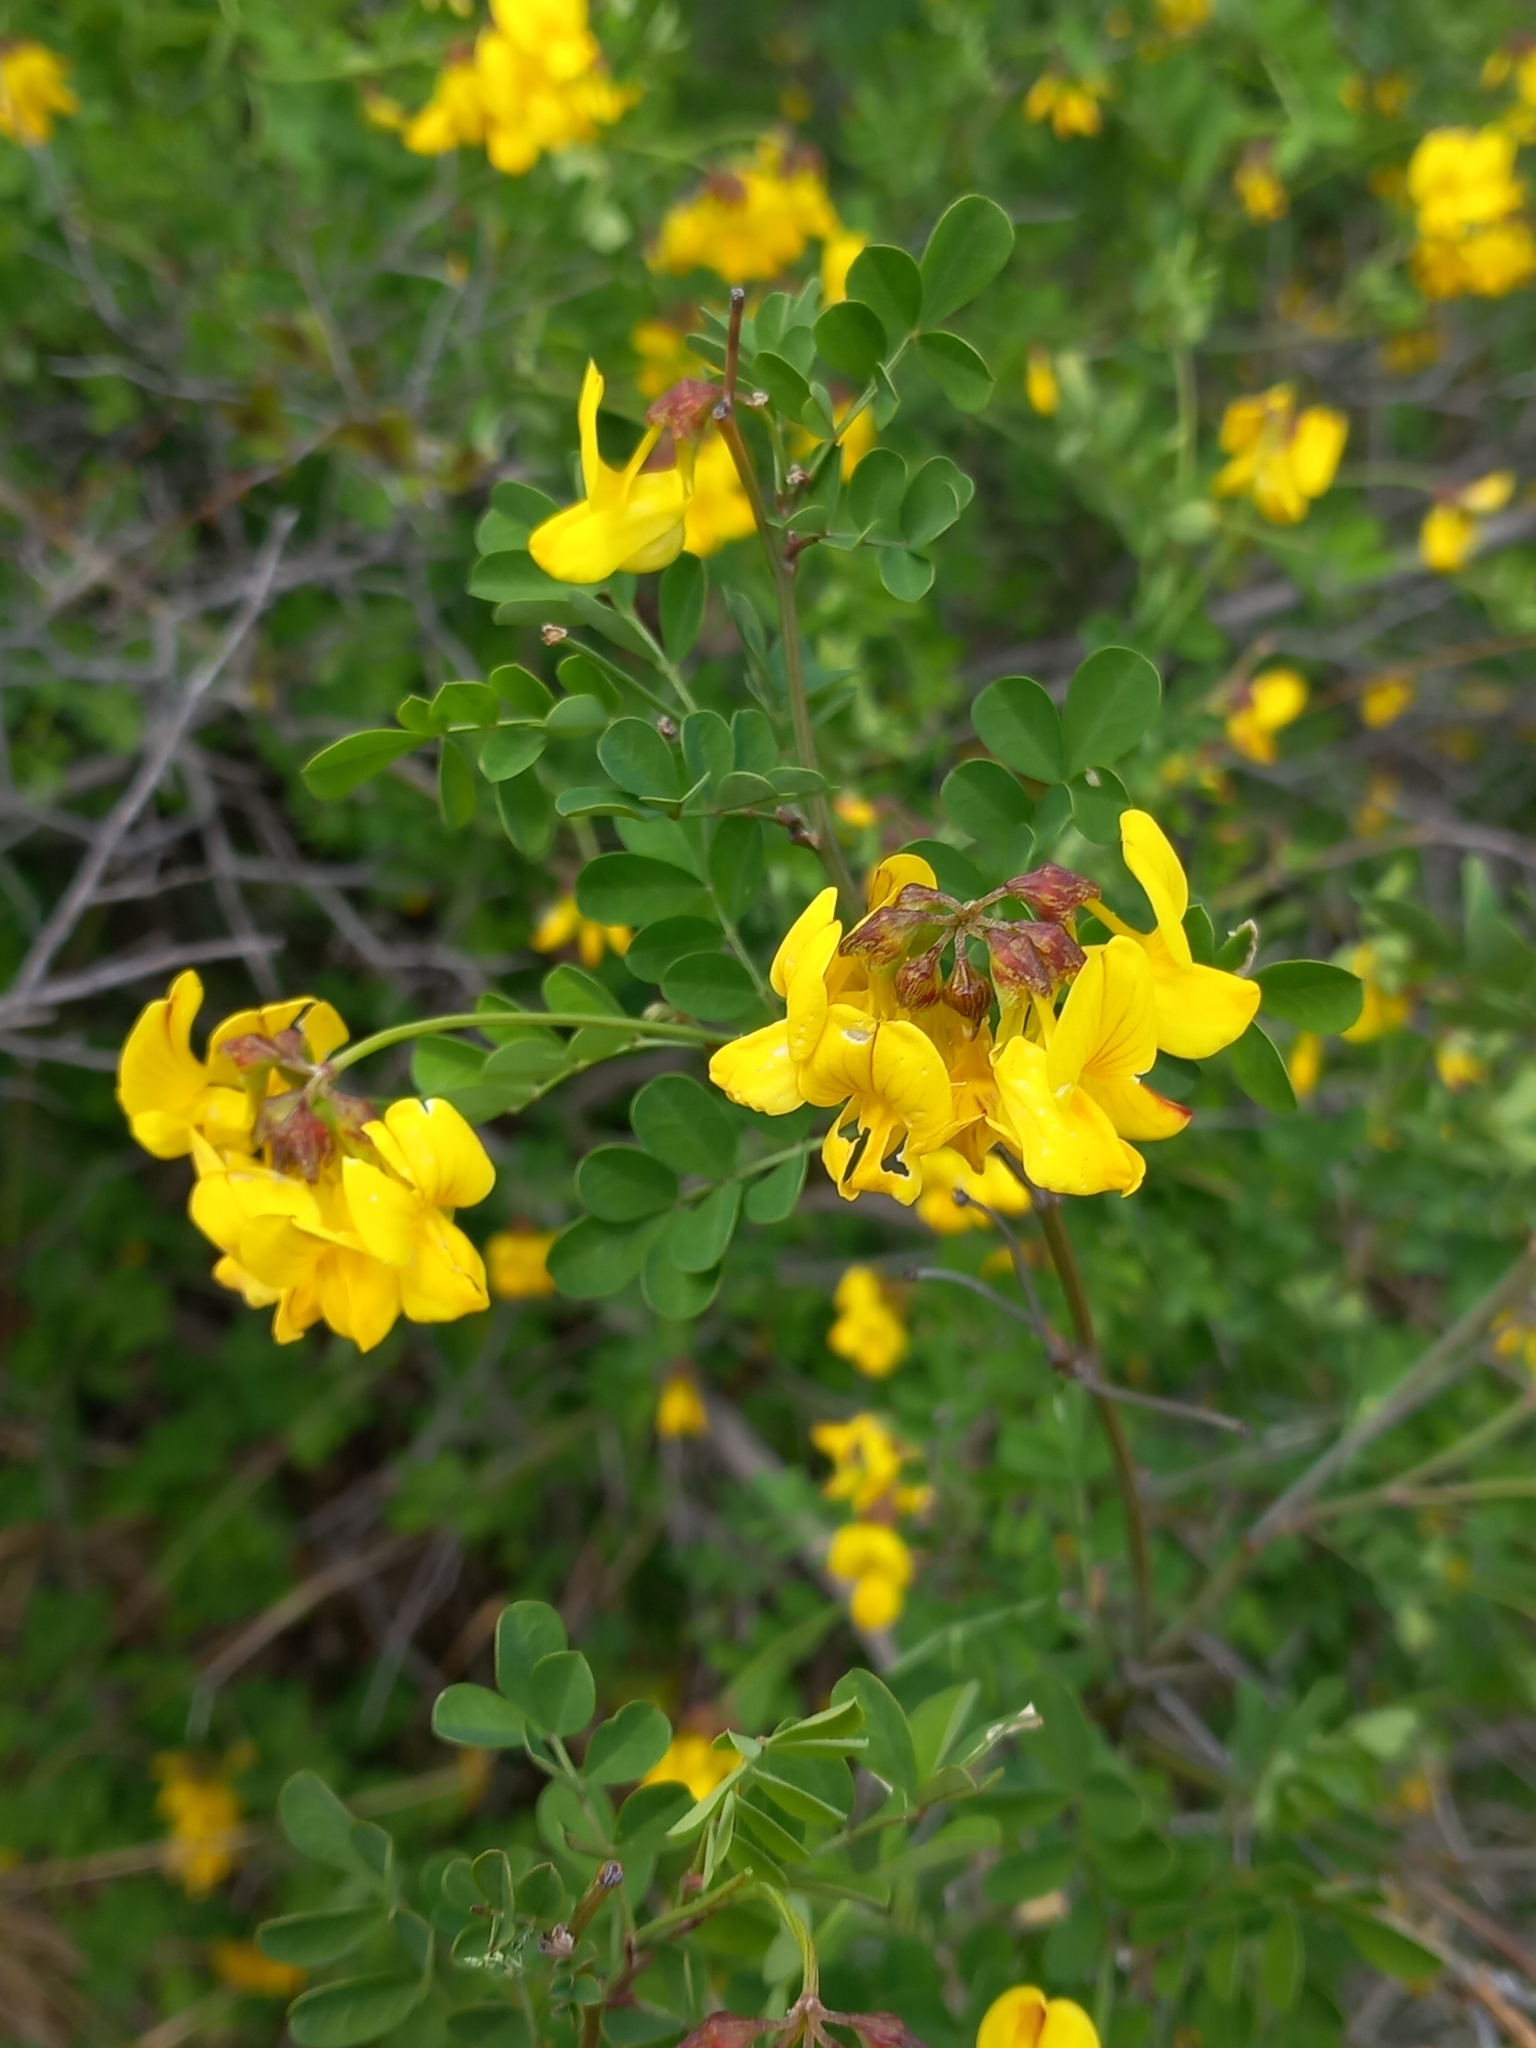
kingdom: Plantae
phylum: Tracheophyta
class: Magnoliopsida
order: Fabales
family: Fabaceae
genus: Colutea
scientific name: Colutea arborescens
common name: Bladder-senna
